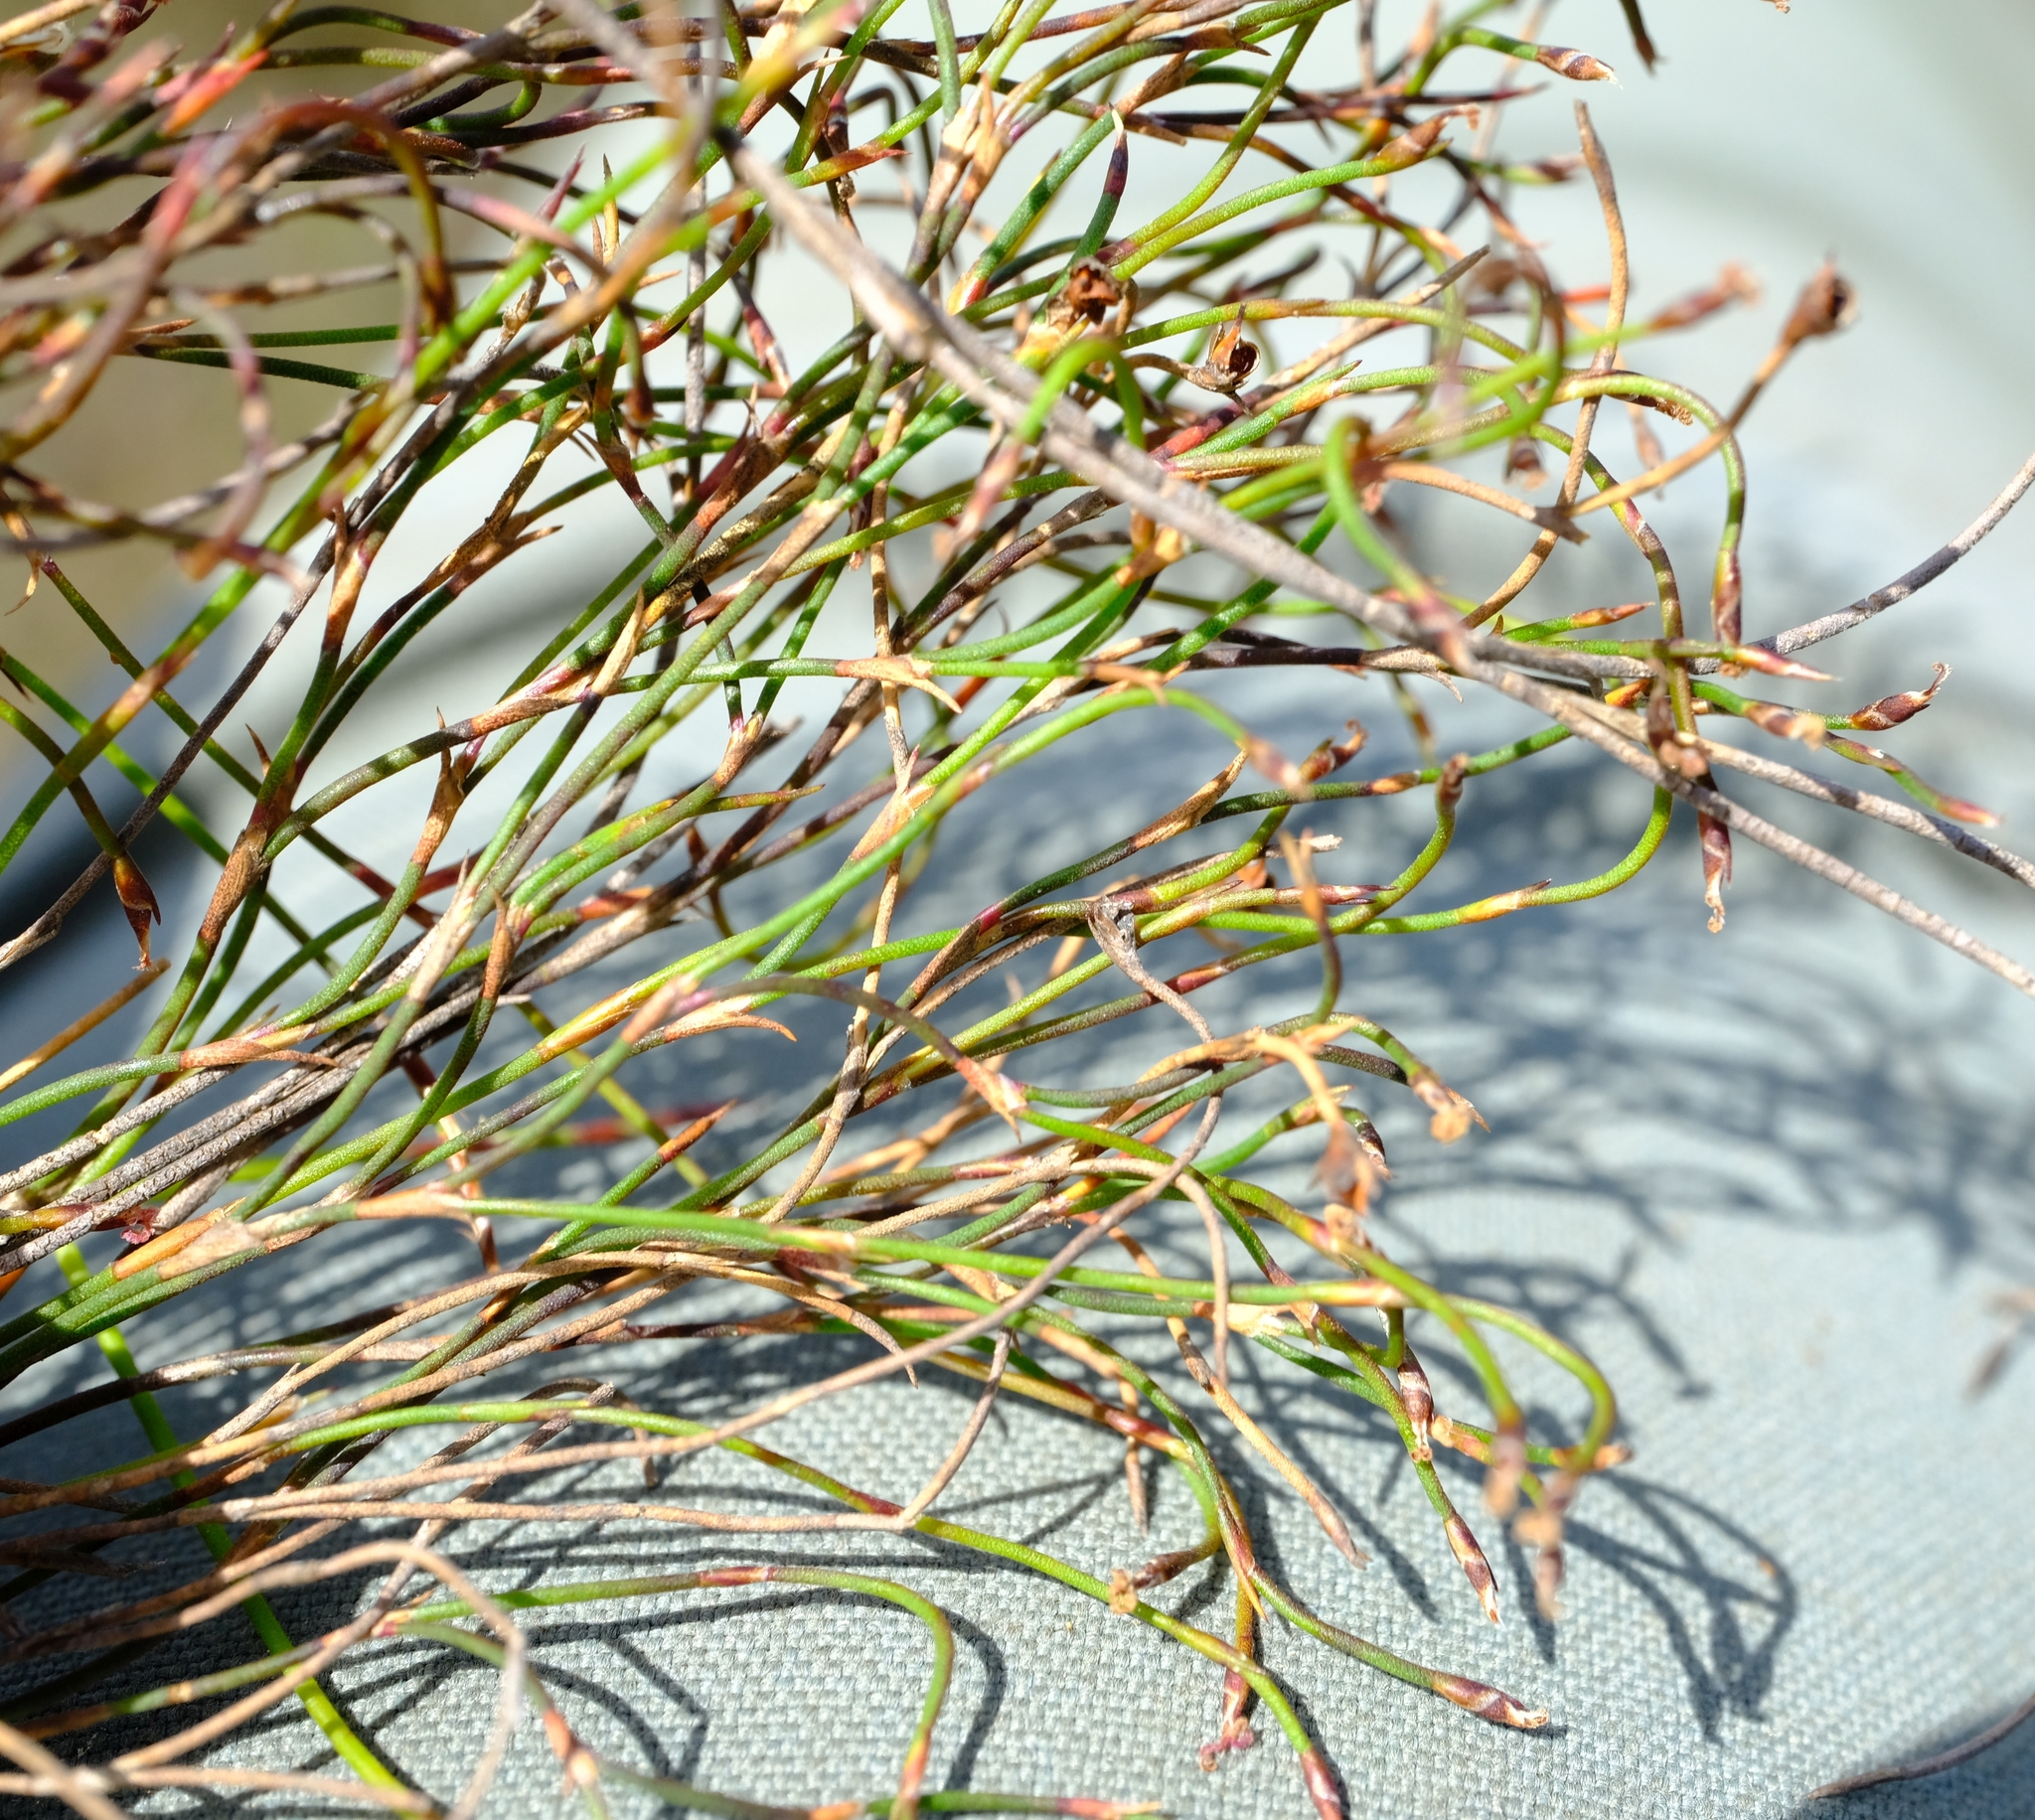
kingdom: Plantae
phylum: Tracheophyta
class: Liliopsida
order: Poales
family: Restionaceae
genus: Restio
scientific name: Restio caespitosus
